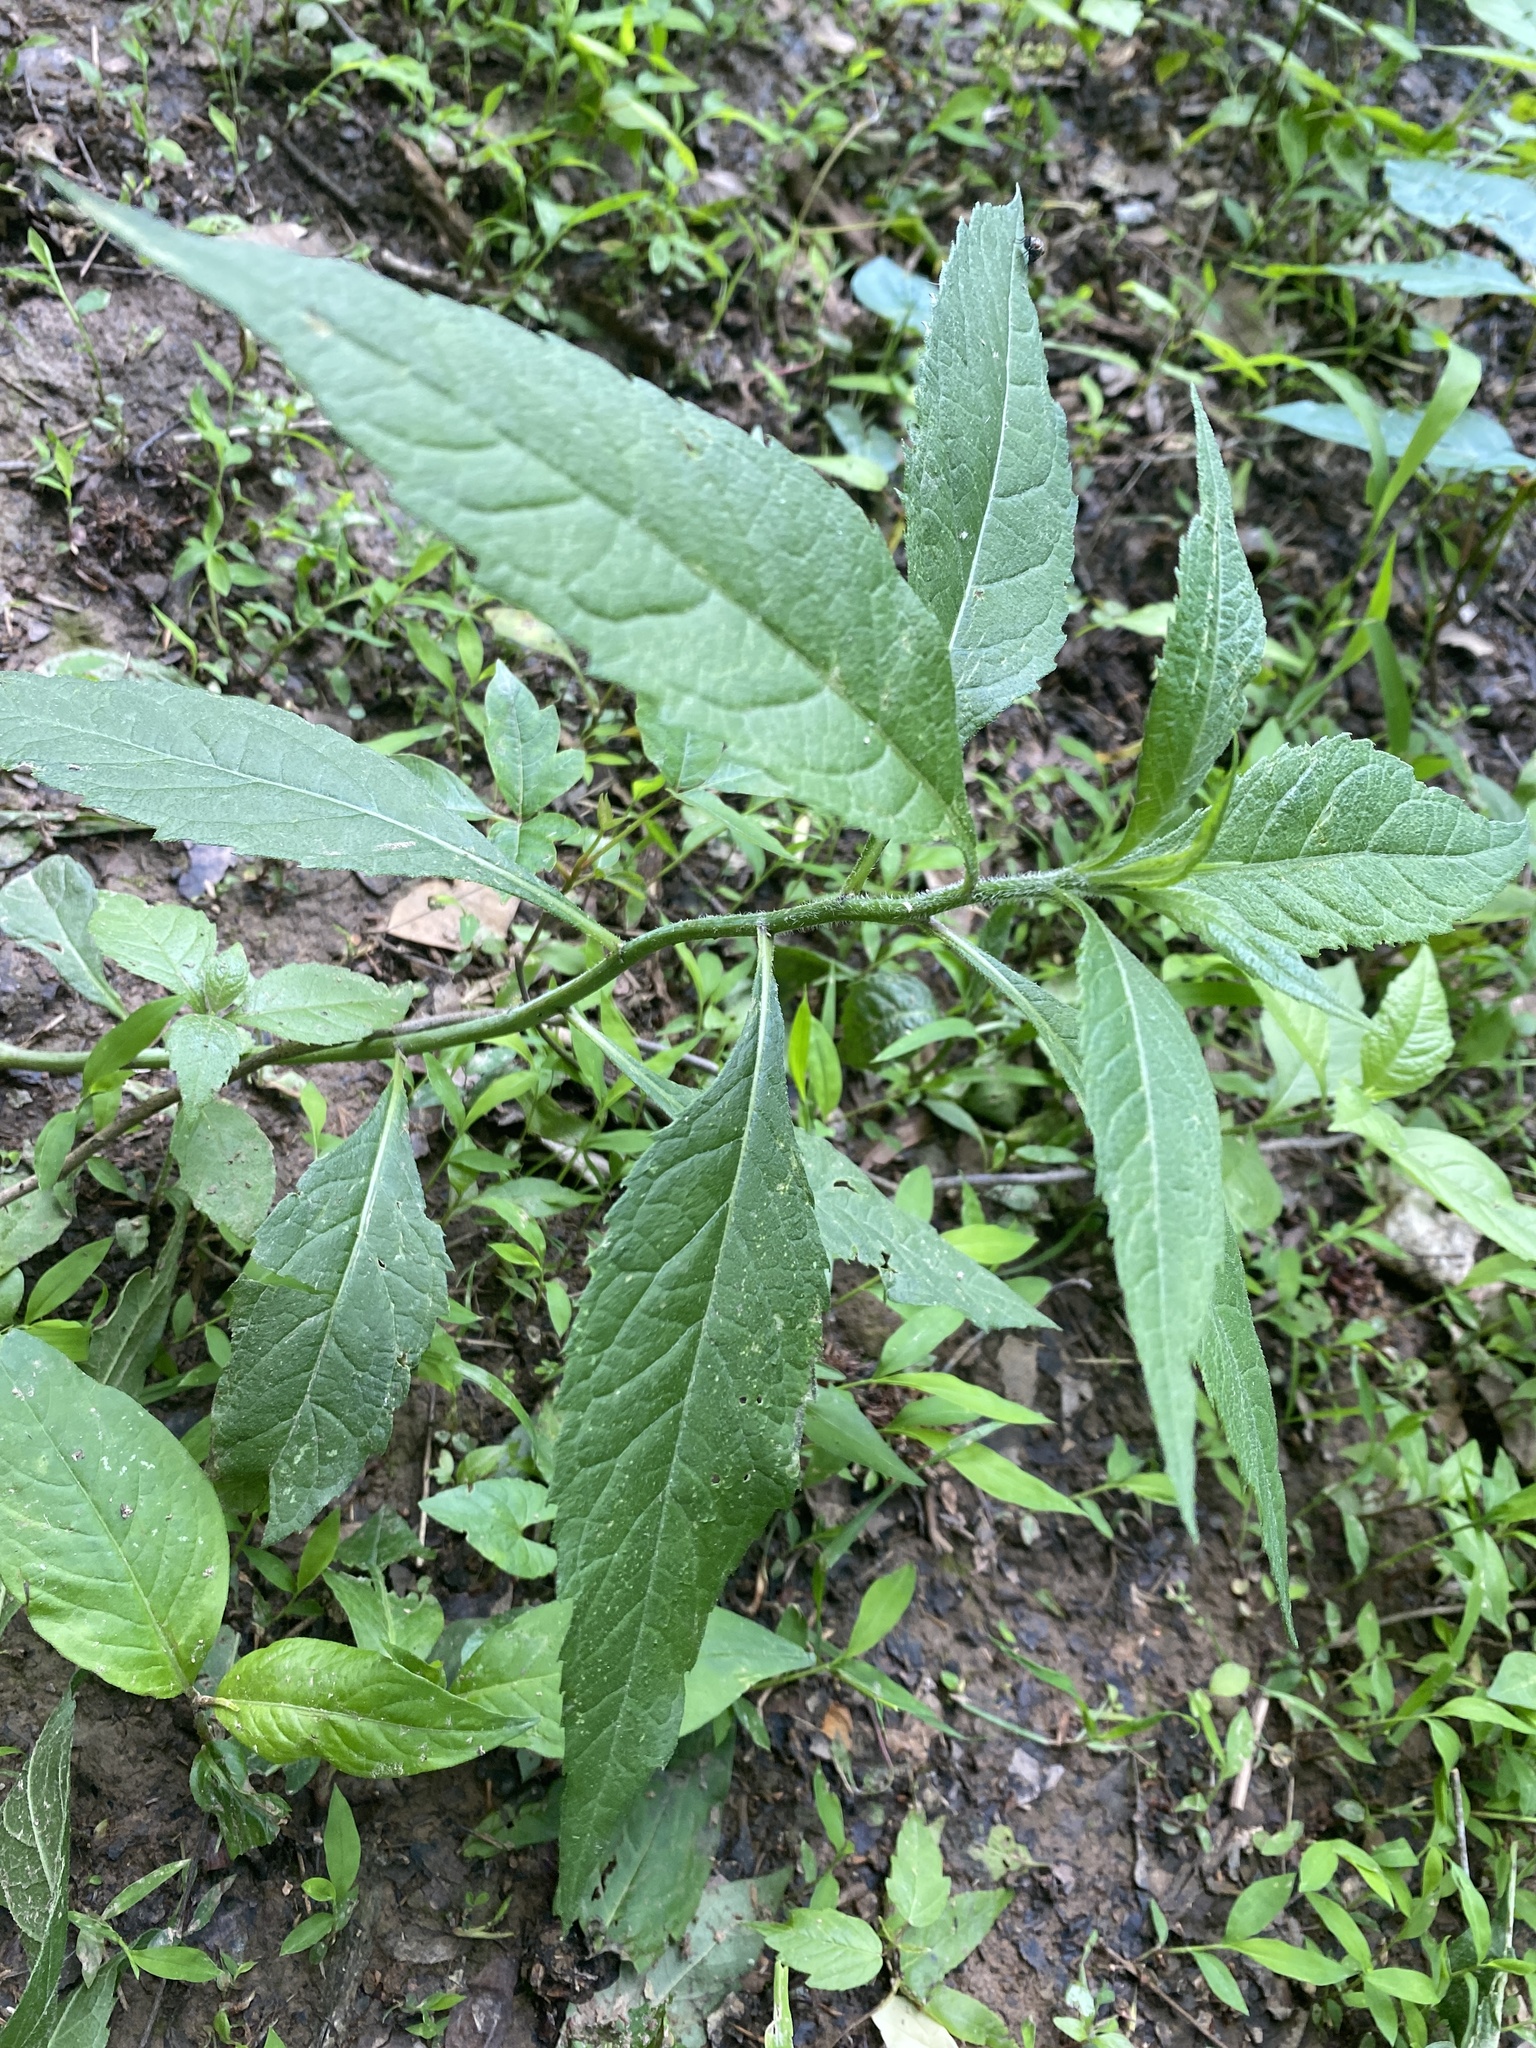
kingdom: Plantae
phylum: Tracheophyta
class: Magnoliopsida
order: Asterales
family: Asteraceae
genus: Vernonia
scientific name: Vernonia noveboracensis
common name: New york ironweed
